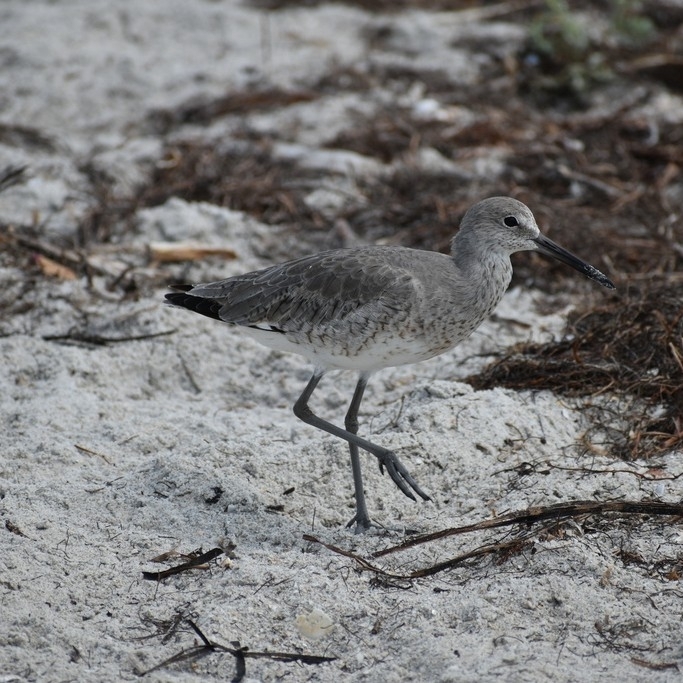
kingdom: Animalia
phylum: Chordata
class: Aves
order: Charadriiformes
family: Scolopacidae
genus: Tringa
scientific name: Tringa semipalmata
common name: Willet
